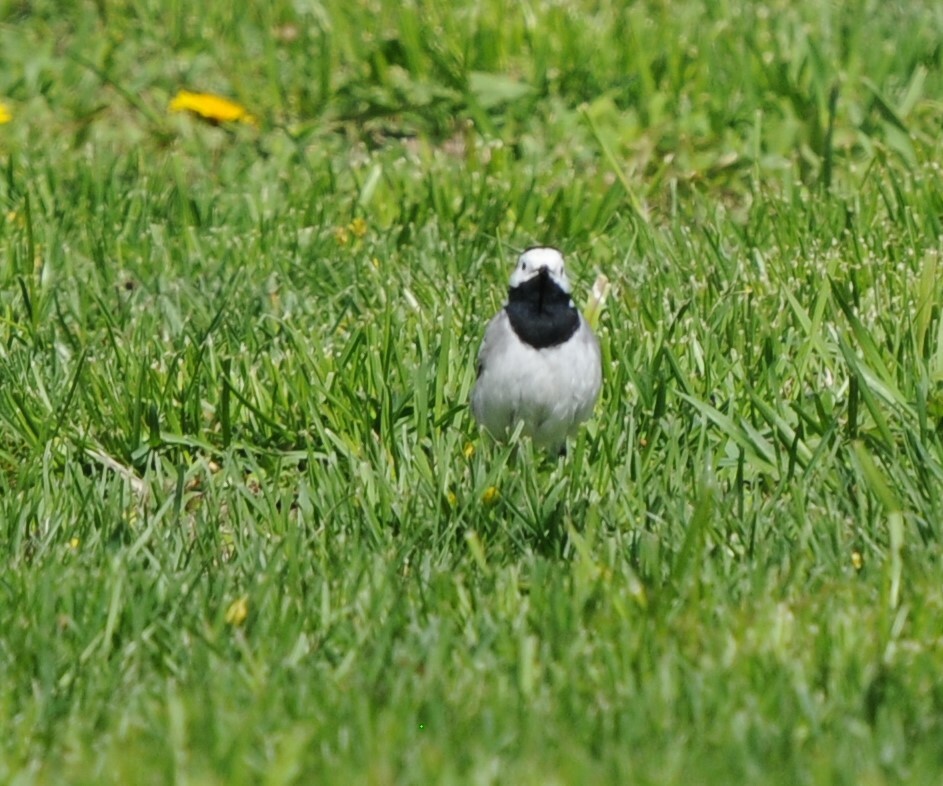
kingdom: Animalia
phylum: Chordata
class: Aves
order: Passeriformes
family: Motacillidae
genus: Motacilla
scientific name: Motacilla alba
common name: White wagtail
